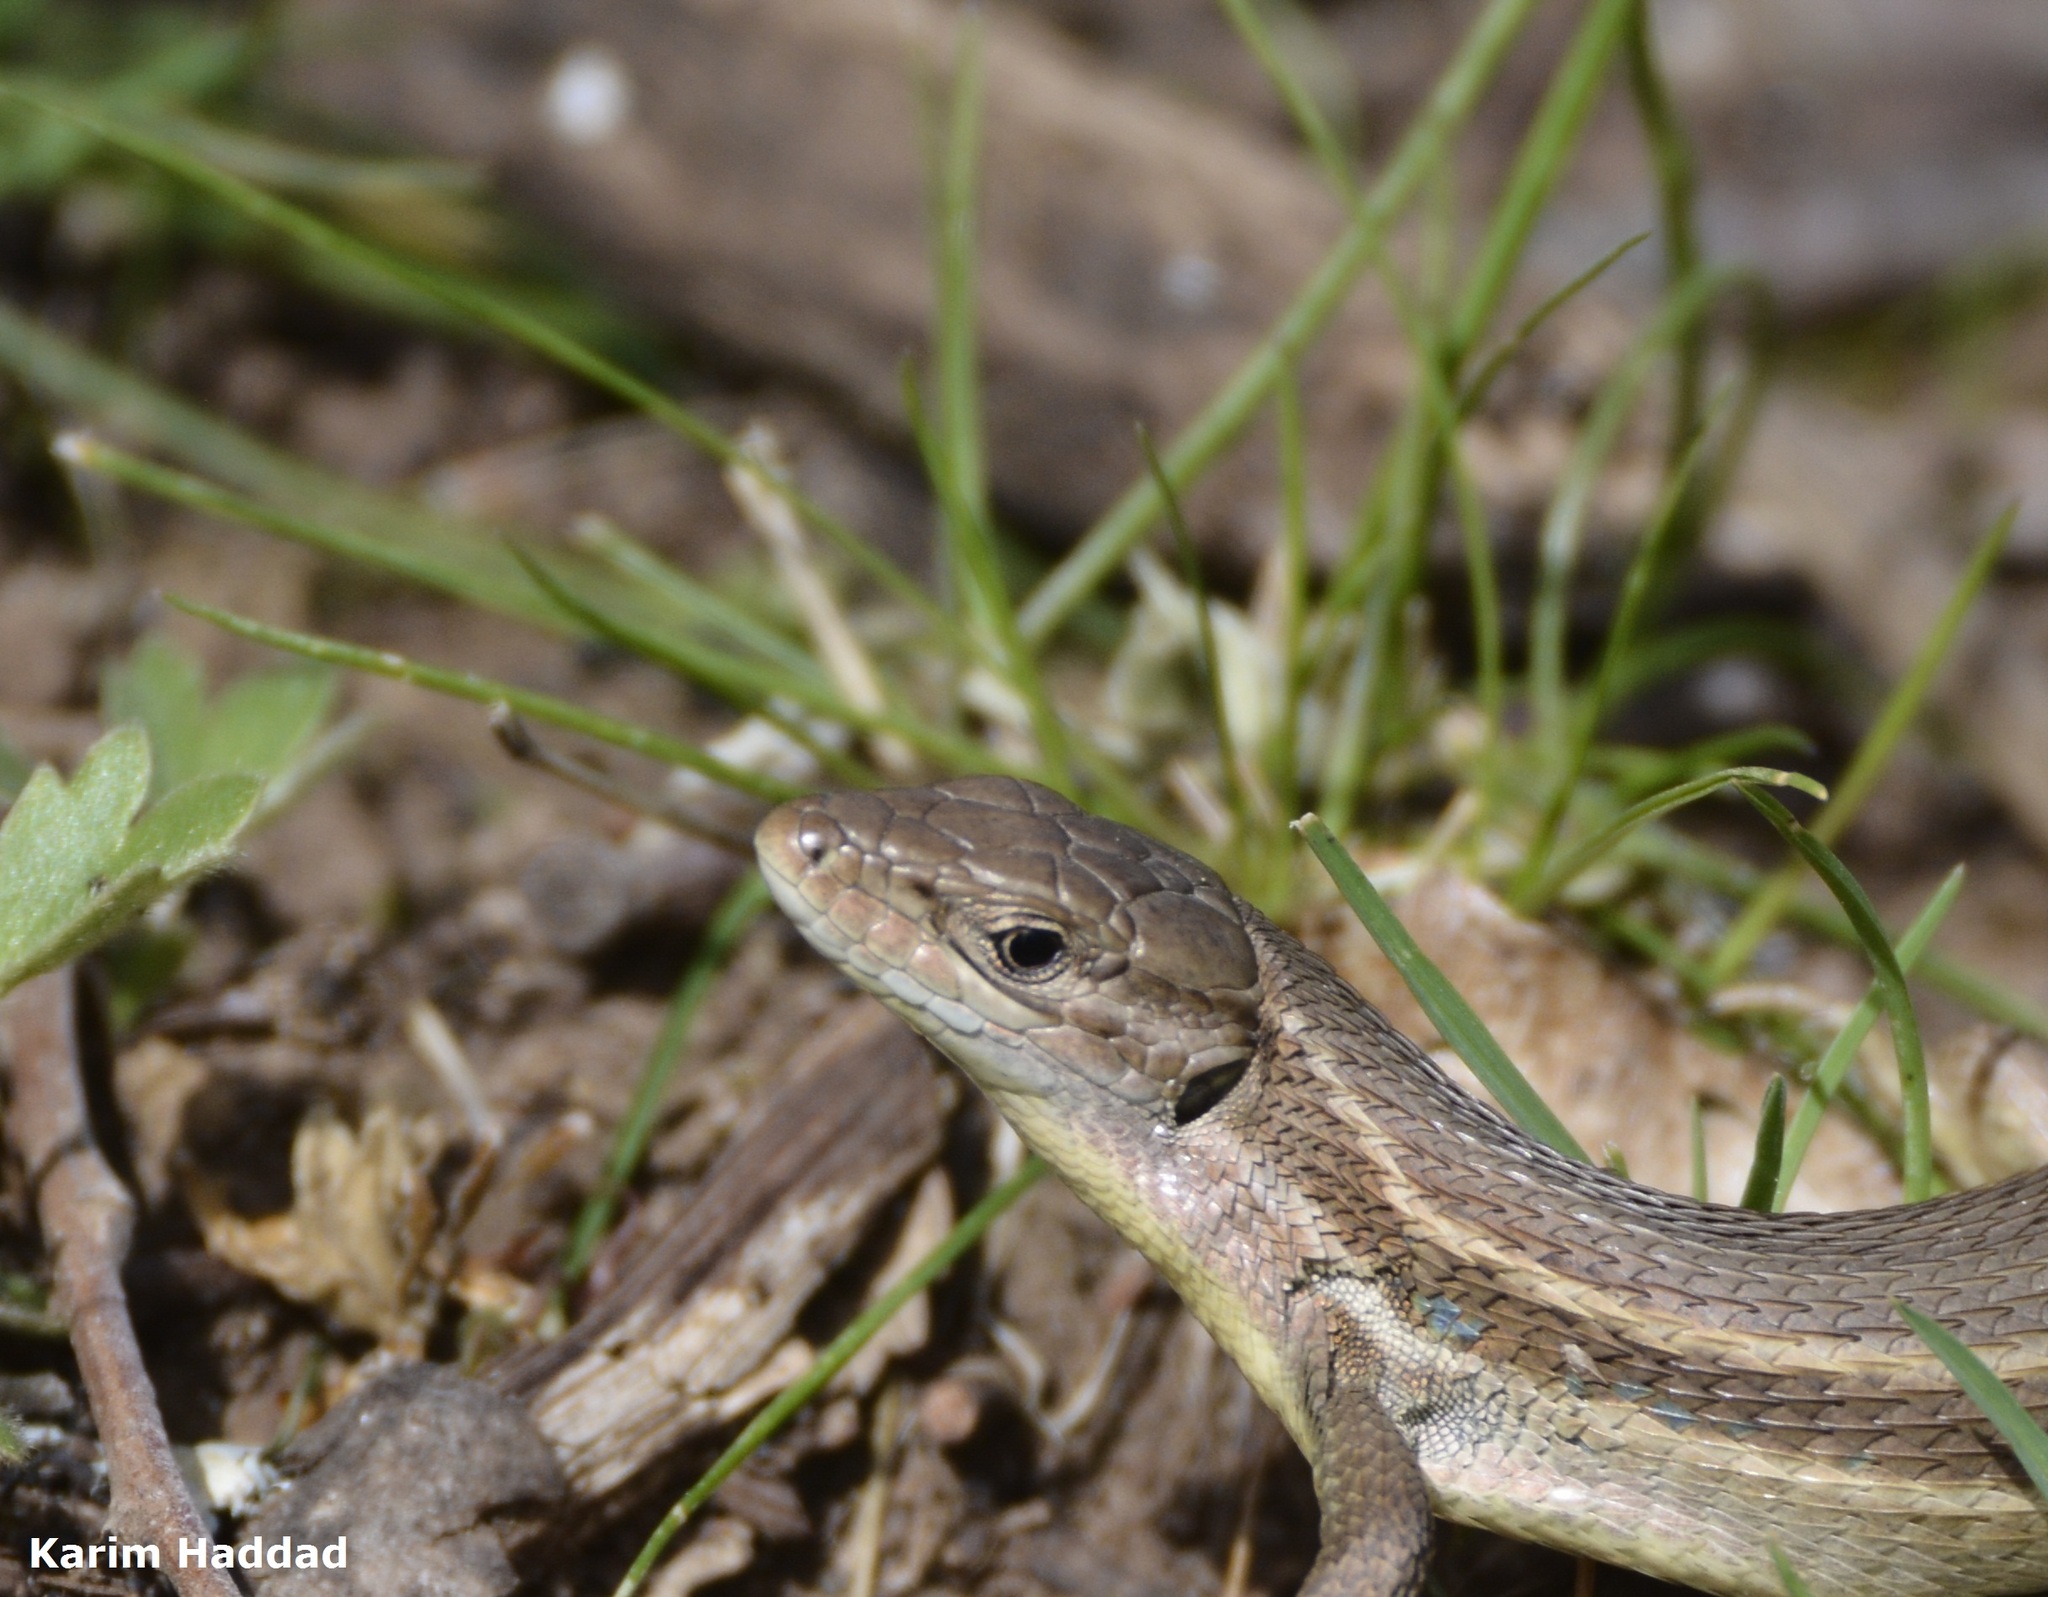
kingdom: Animalia
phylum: Chordata
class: Squamata
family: Lacertidae
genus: Psammodromus
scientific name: Psammodromus algirus
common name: Algerian psammodromus
